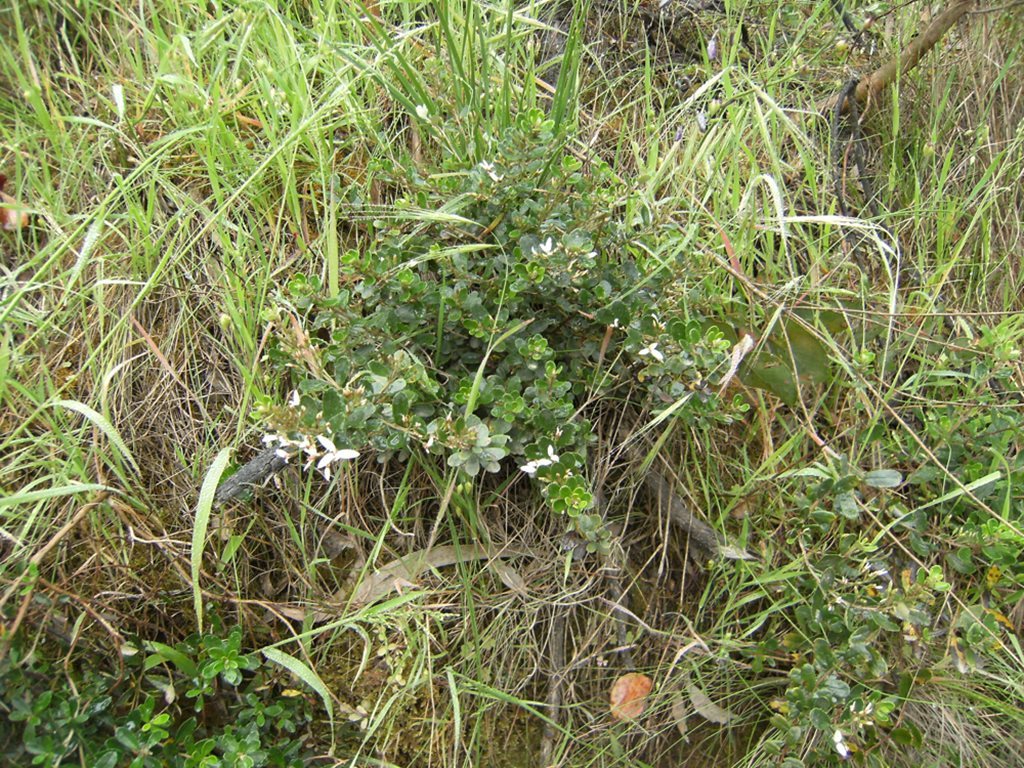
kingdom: Plantae
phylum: Tracheophyta
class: Magnoliopsida
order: Asterales
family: Asteraceae
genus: Olearia
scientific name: Olearia myrsinoides
